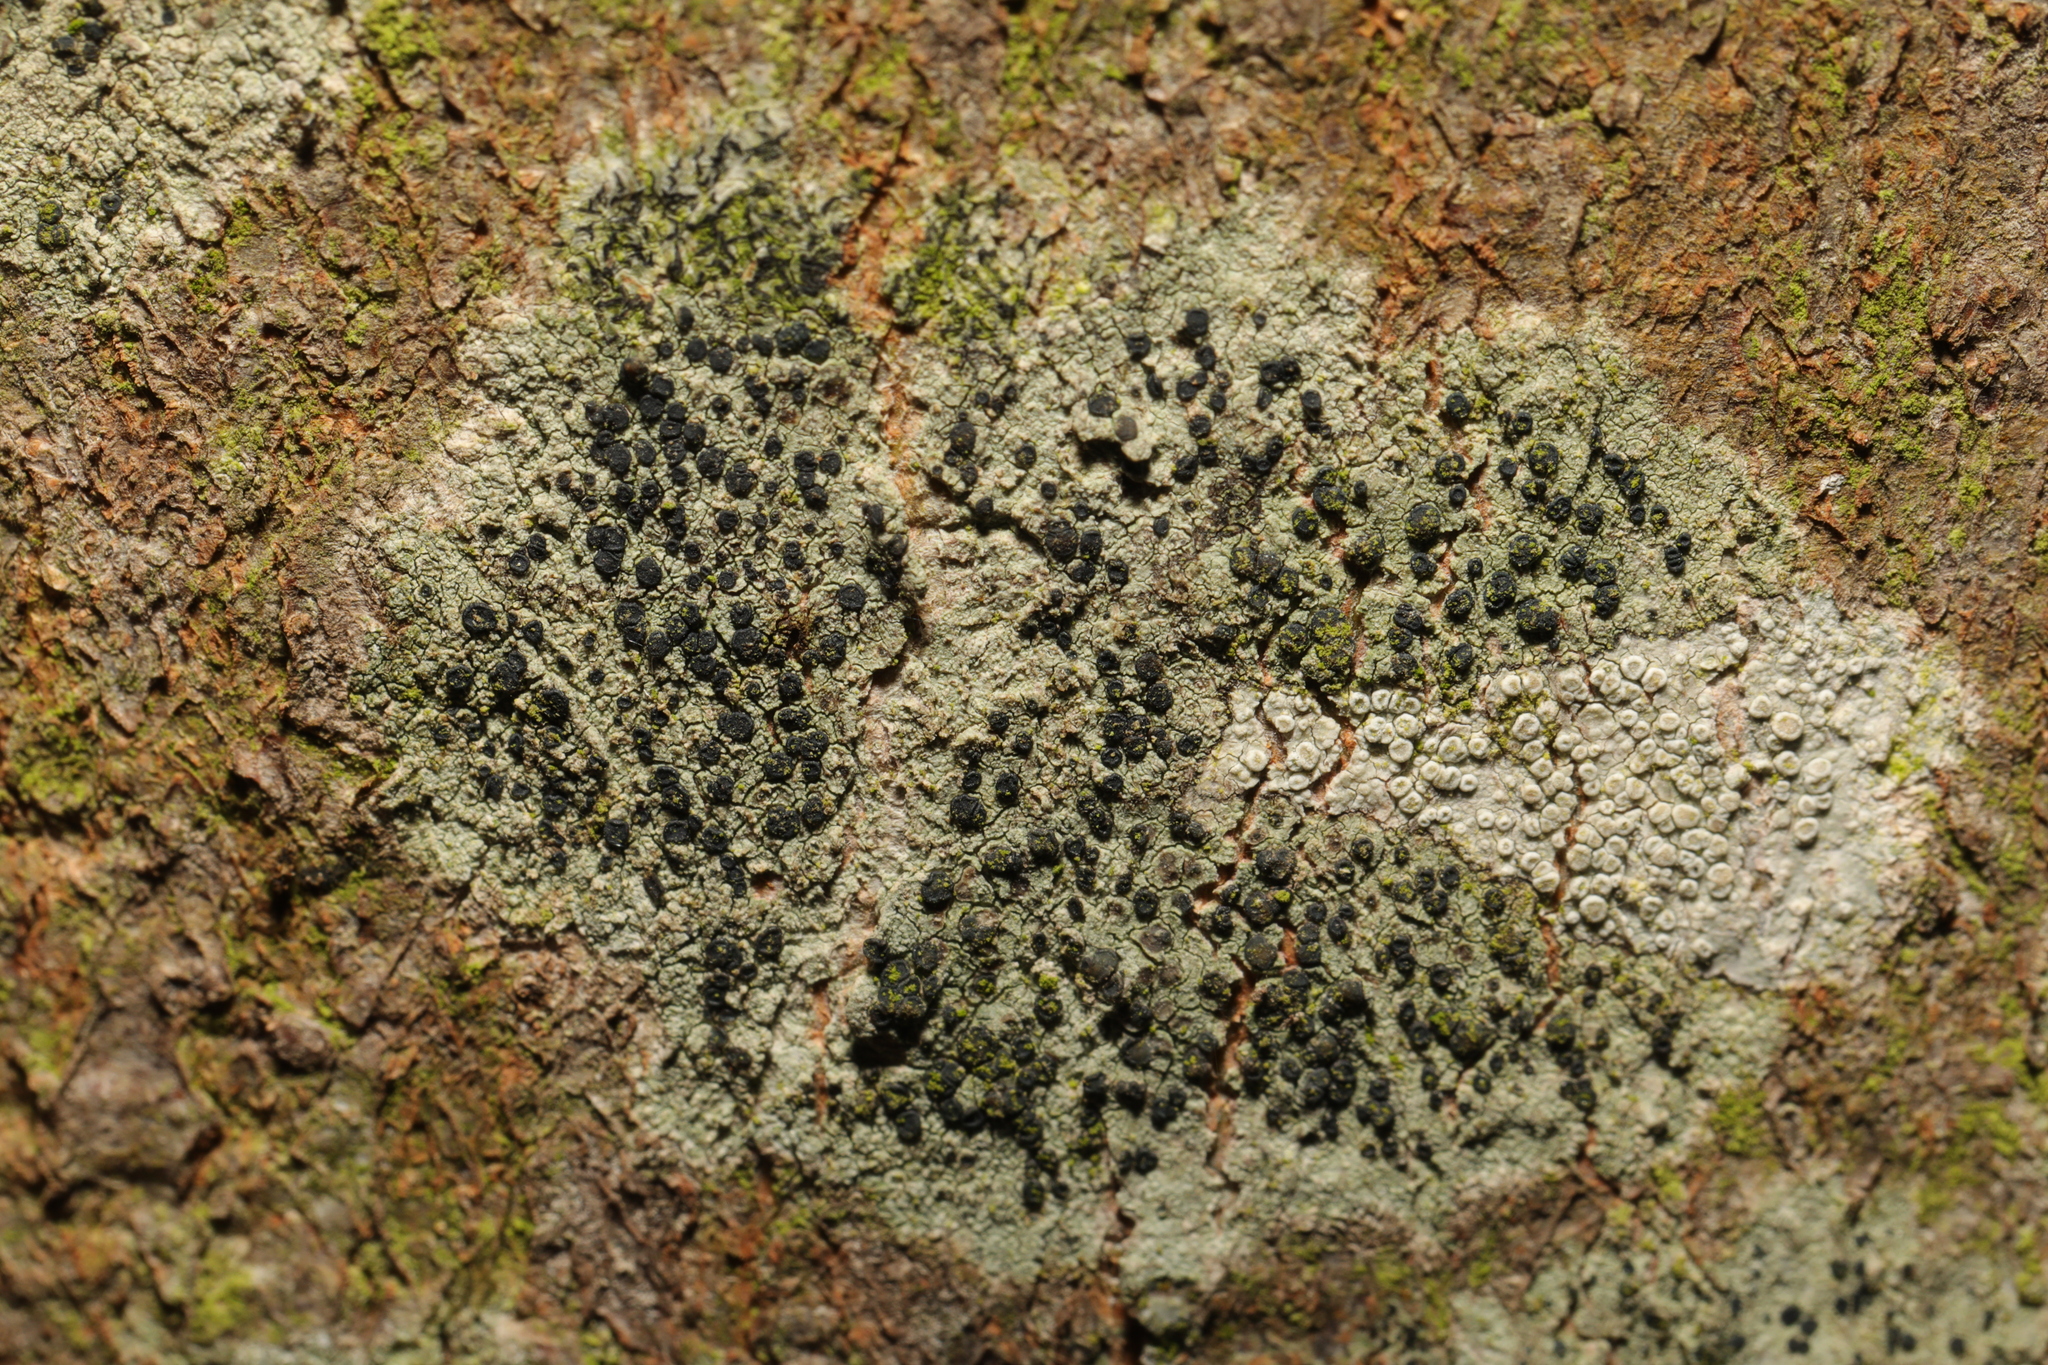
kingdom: Fungi
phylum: Ascomycota
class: Lecanoromycetes
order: Lecanorales
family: Lecanoraceae
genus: Lecidella
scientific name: Lecidella elaeochroma
